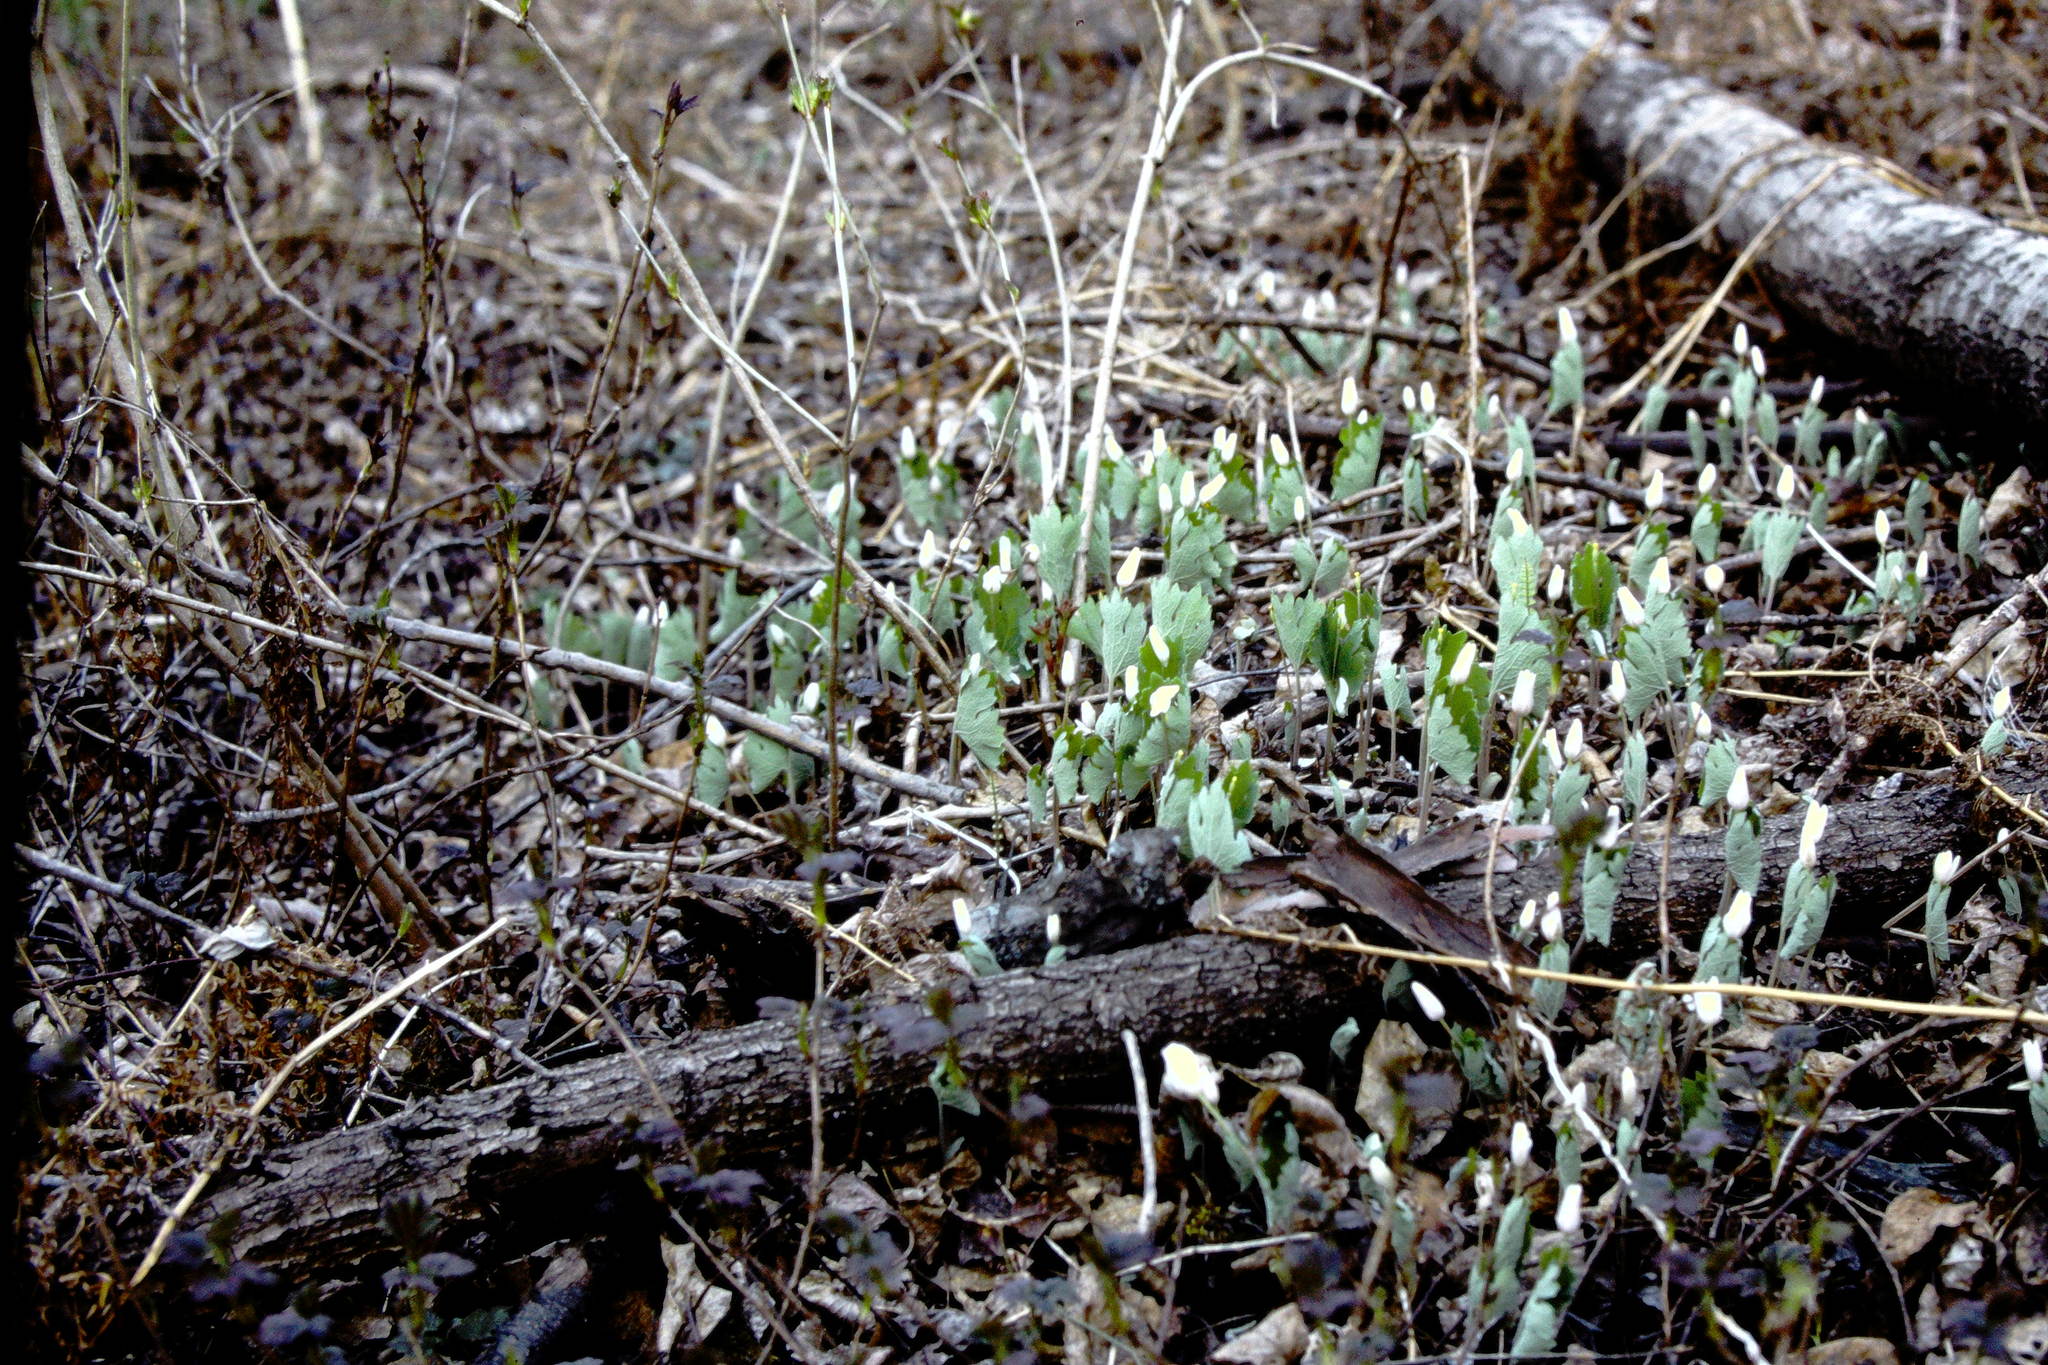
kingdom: Plantae
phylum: Tracheophyta
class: Magnoliopsida
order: Ranunculales
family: Papaveraceae
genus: Sanguinaria
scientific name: Sanguinaria canadensis
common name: Bloodroot
